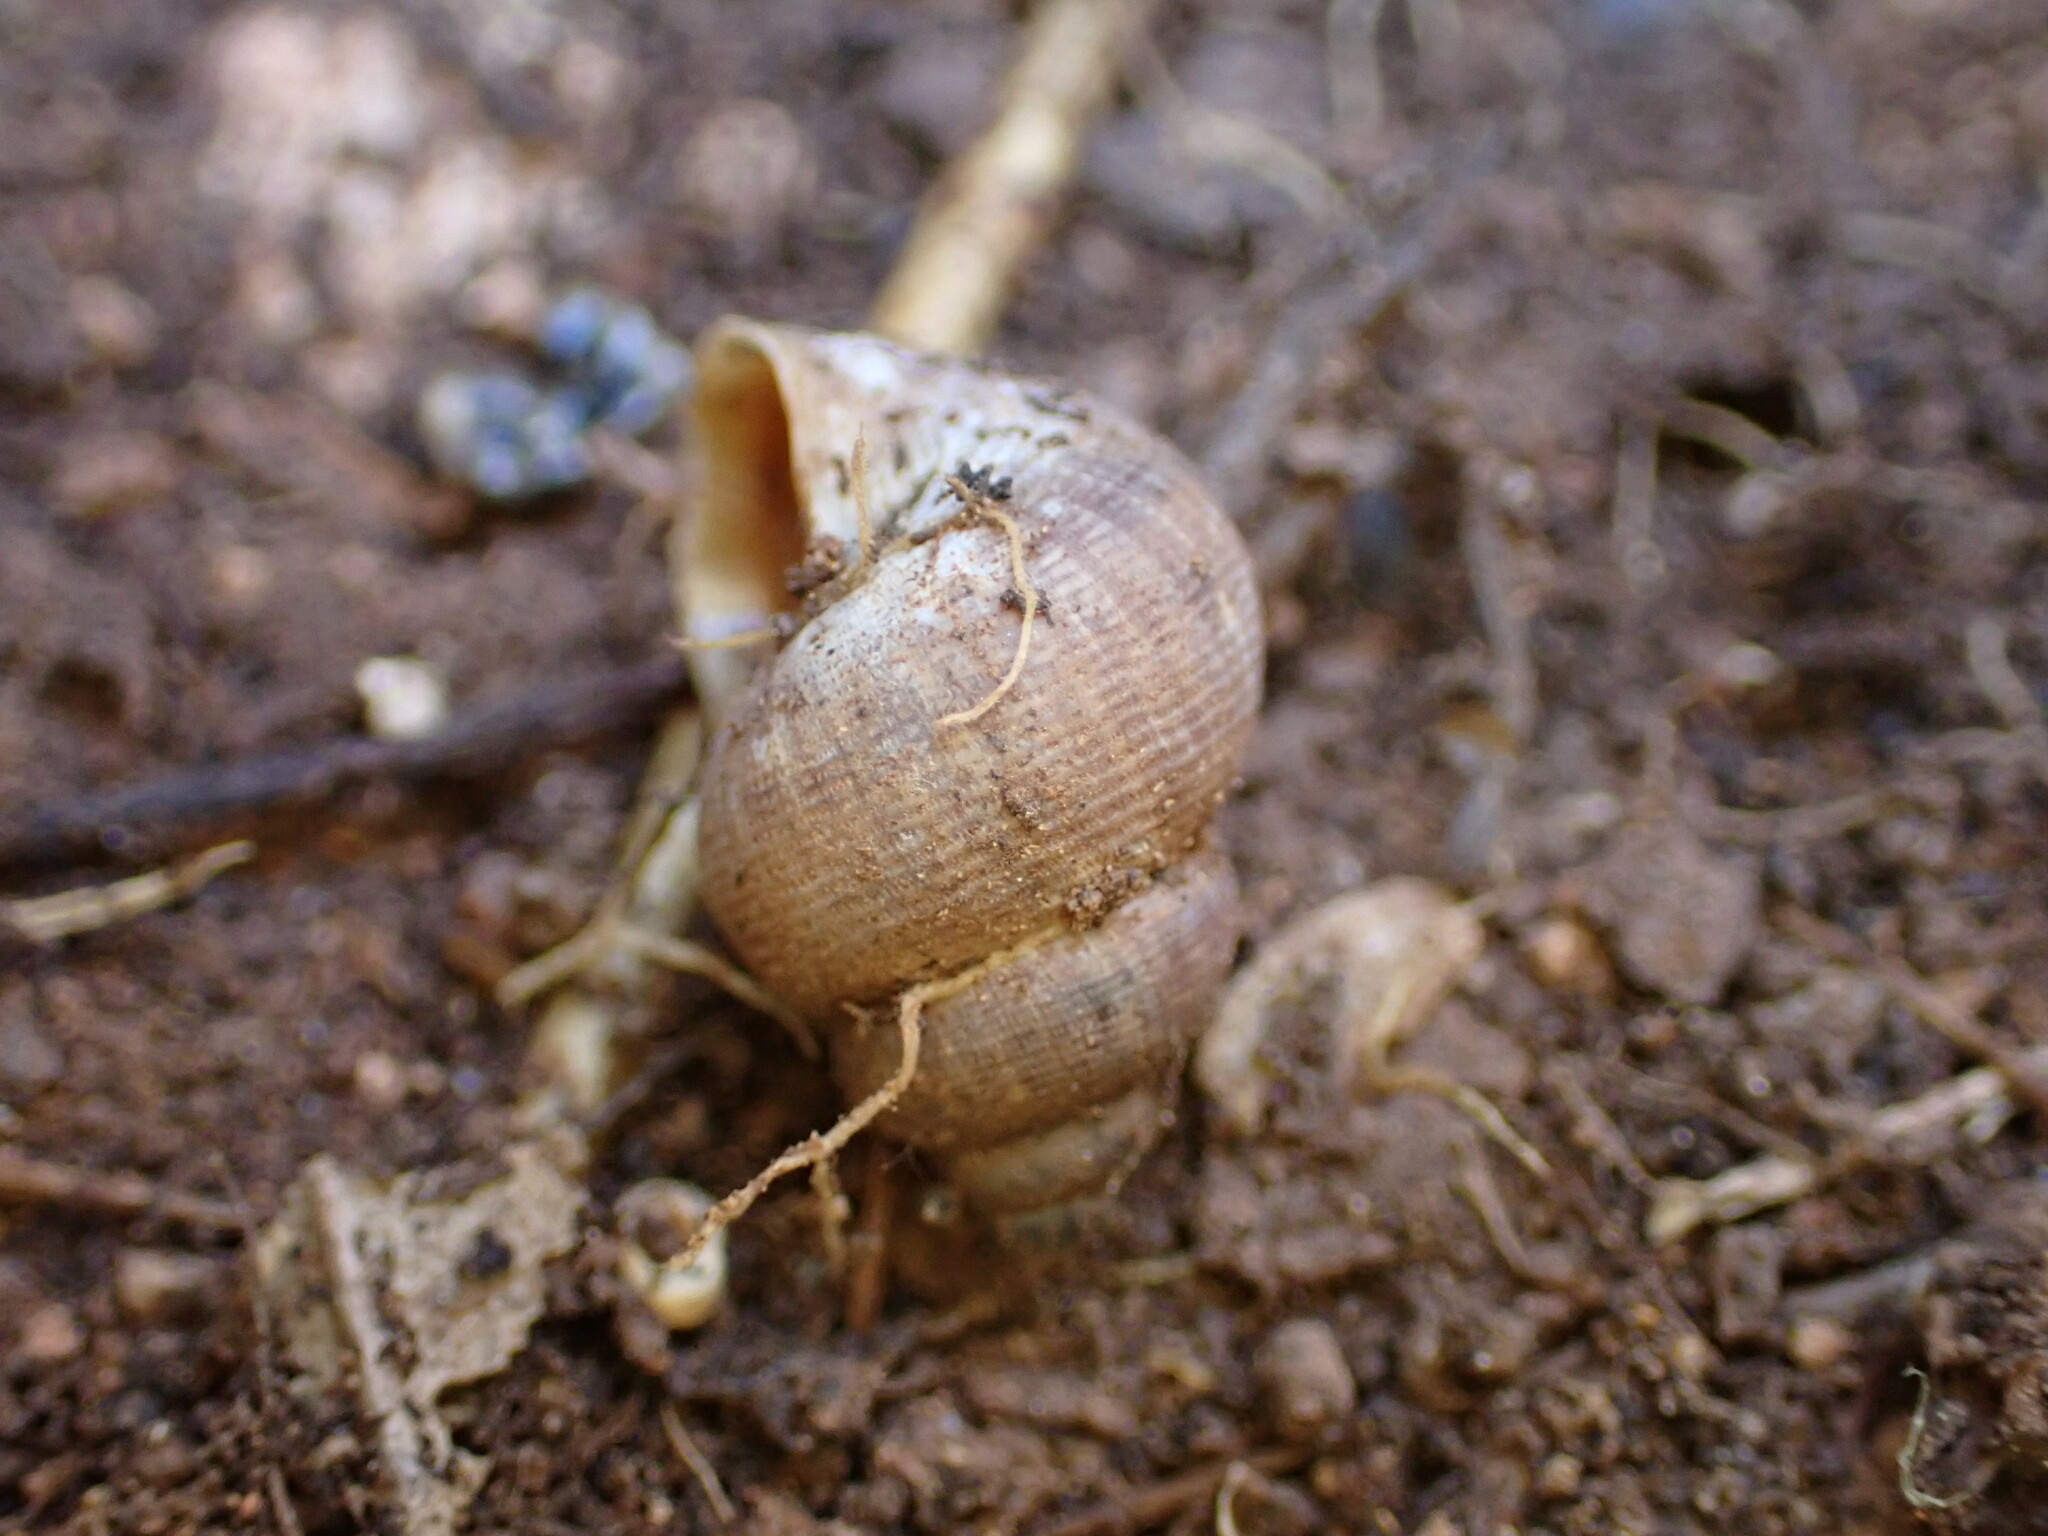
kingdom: Animalia
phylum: Mollusca
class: Gastropoda
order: Littorinimorpha
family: Pomatiidae
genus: Pomatias
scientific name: Pomatias elegans
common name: Red-mouthed snail
